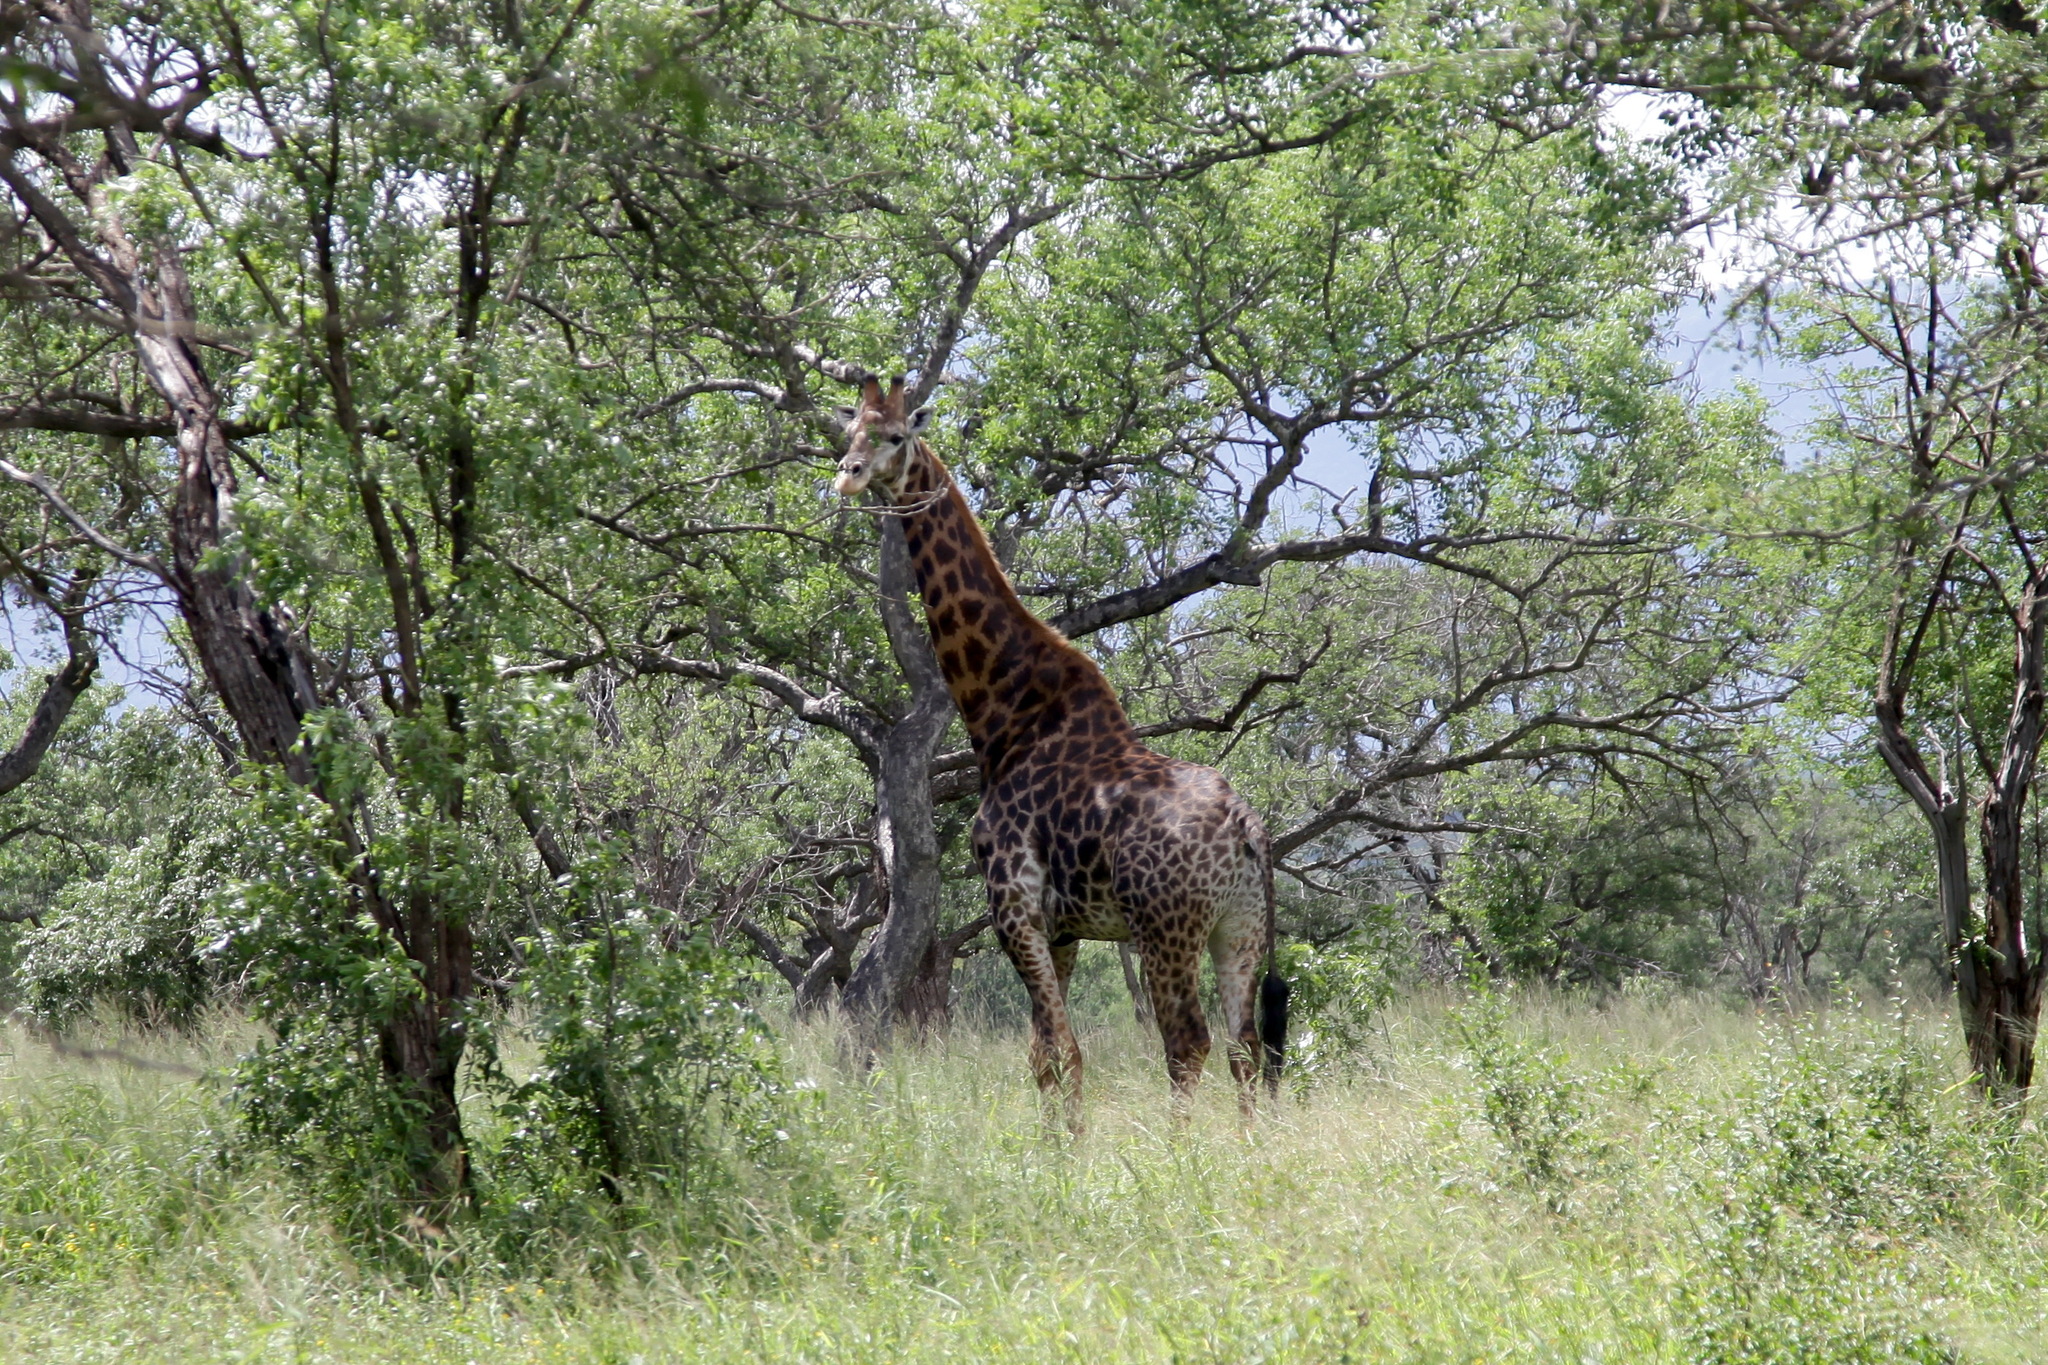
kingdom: Animalia
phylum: Chordata
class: Mammalia
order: Artiodactyla
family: Giraffidae
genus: Giraffa
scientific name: Giraffa giraffa
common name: Southern giraffe
